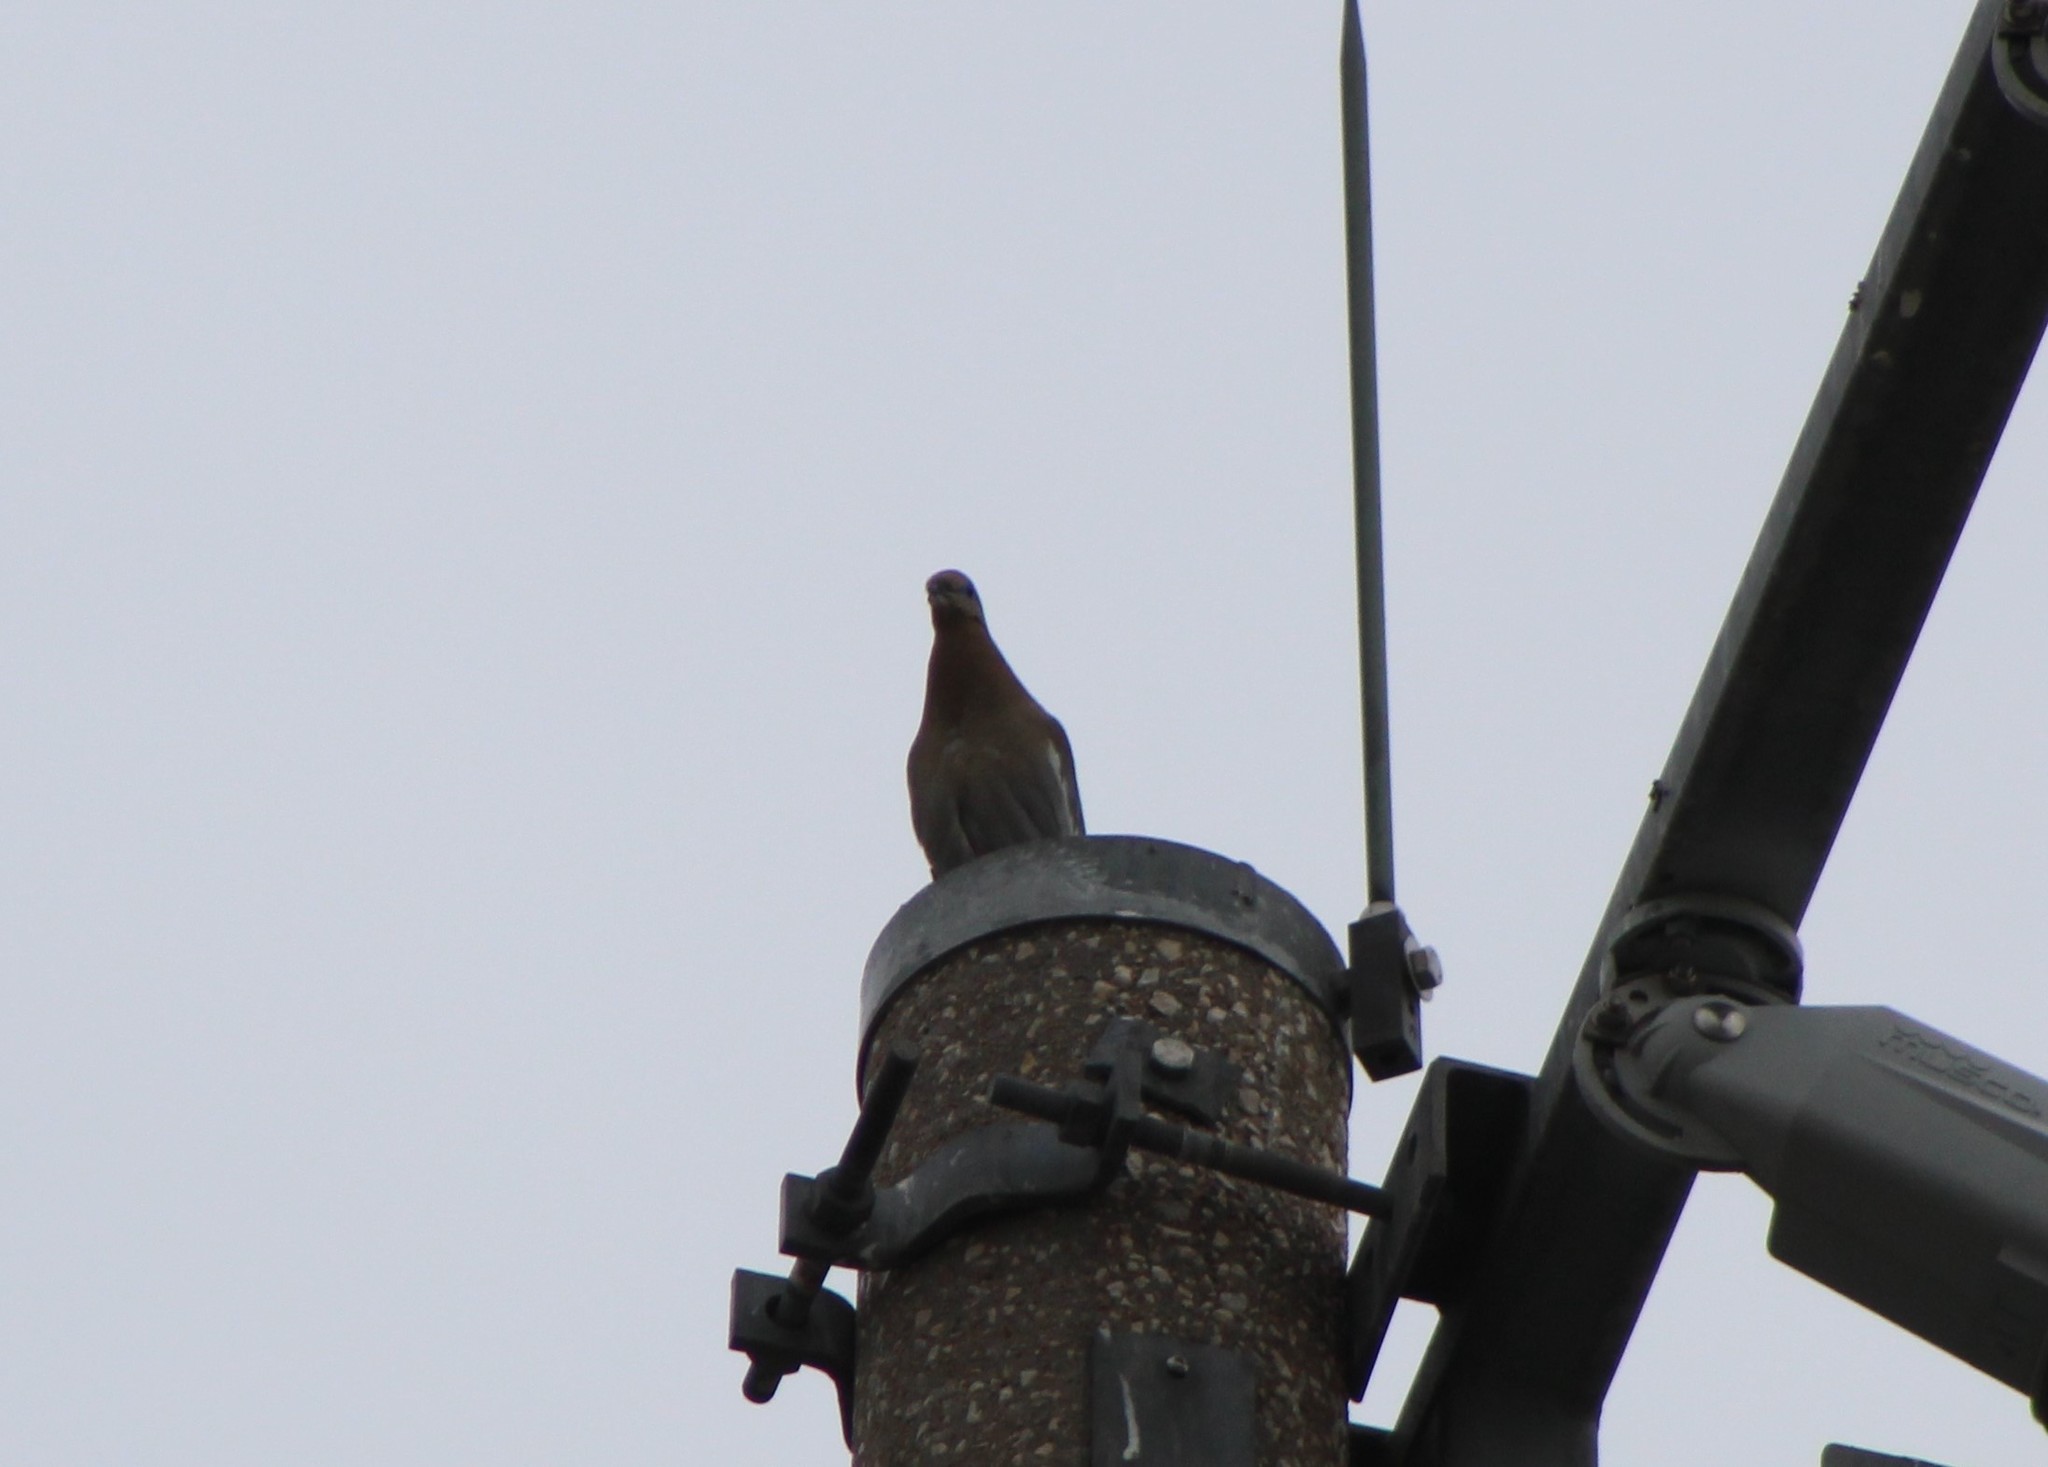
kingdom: Animalia
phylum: Chordata
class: Aves
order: Columbiformes
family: Columbidae
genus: Zenaida
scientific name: Zenaida asiatica
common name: White-winged dove
